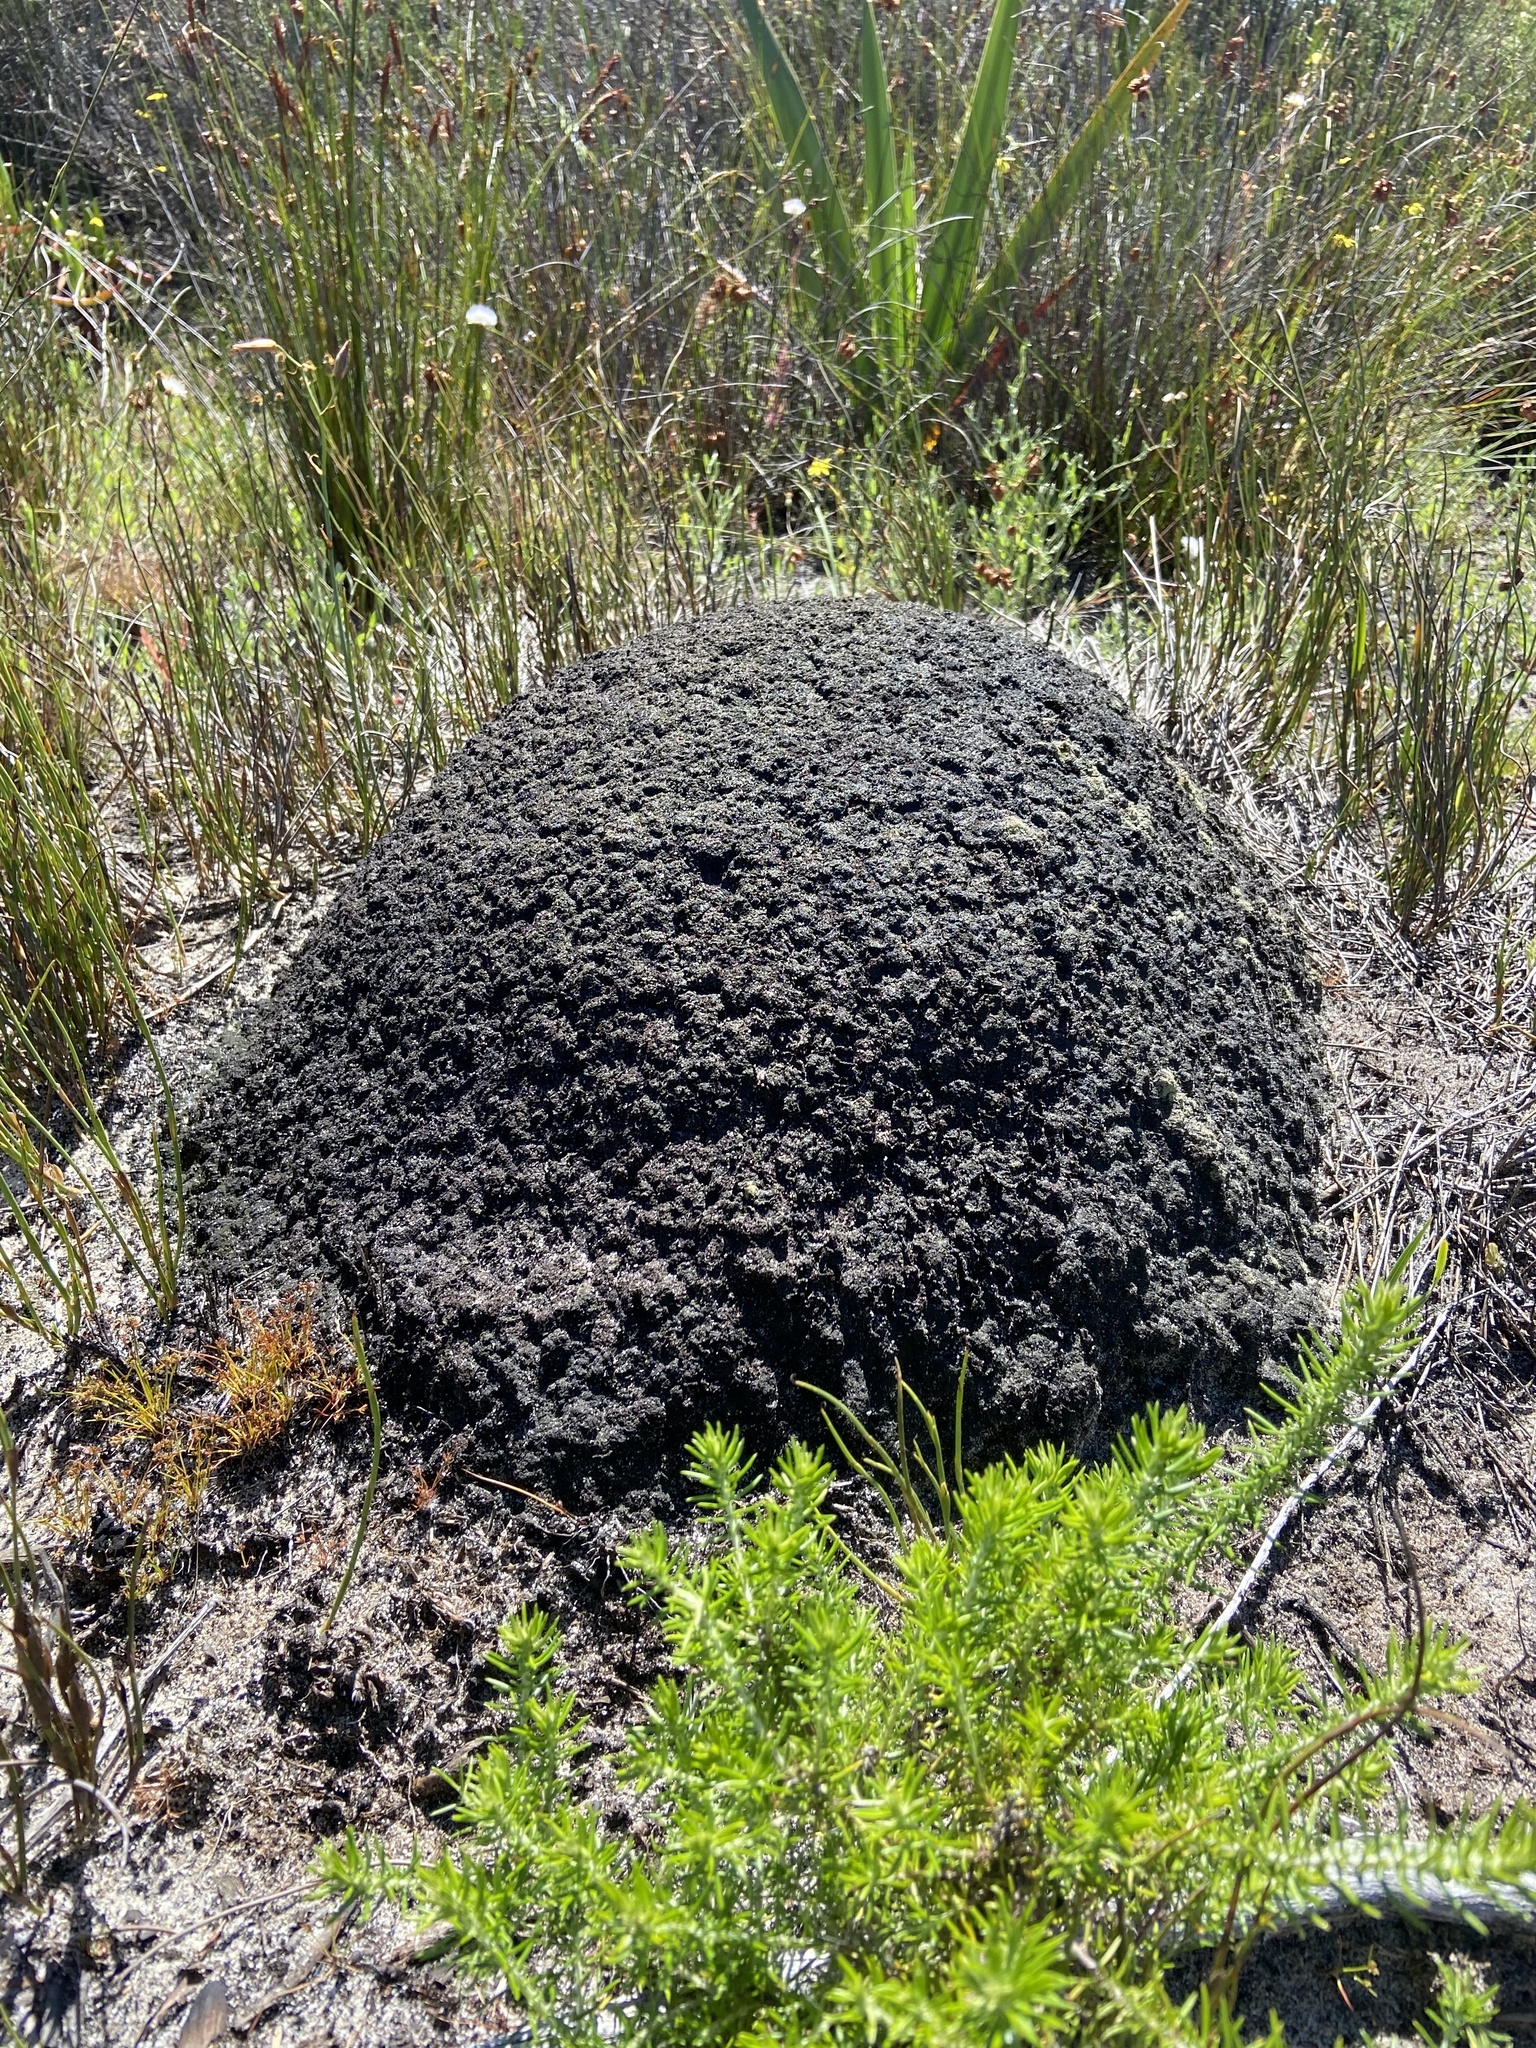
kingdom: Animalia
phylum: Arthropoda
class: Insecta
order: Blattodea
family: Termitidae
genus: Amitermes
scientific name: Amitermes hastatus
